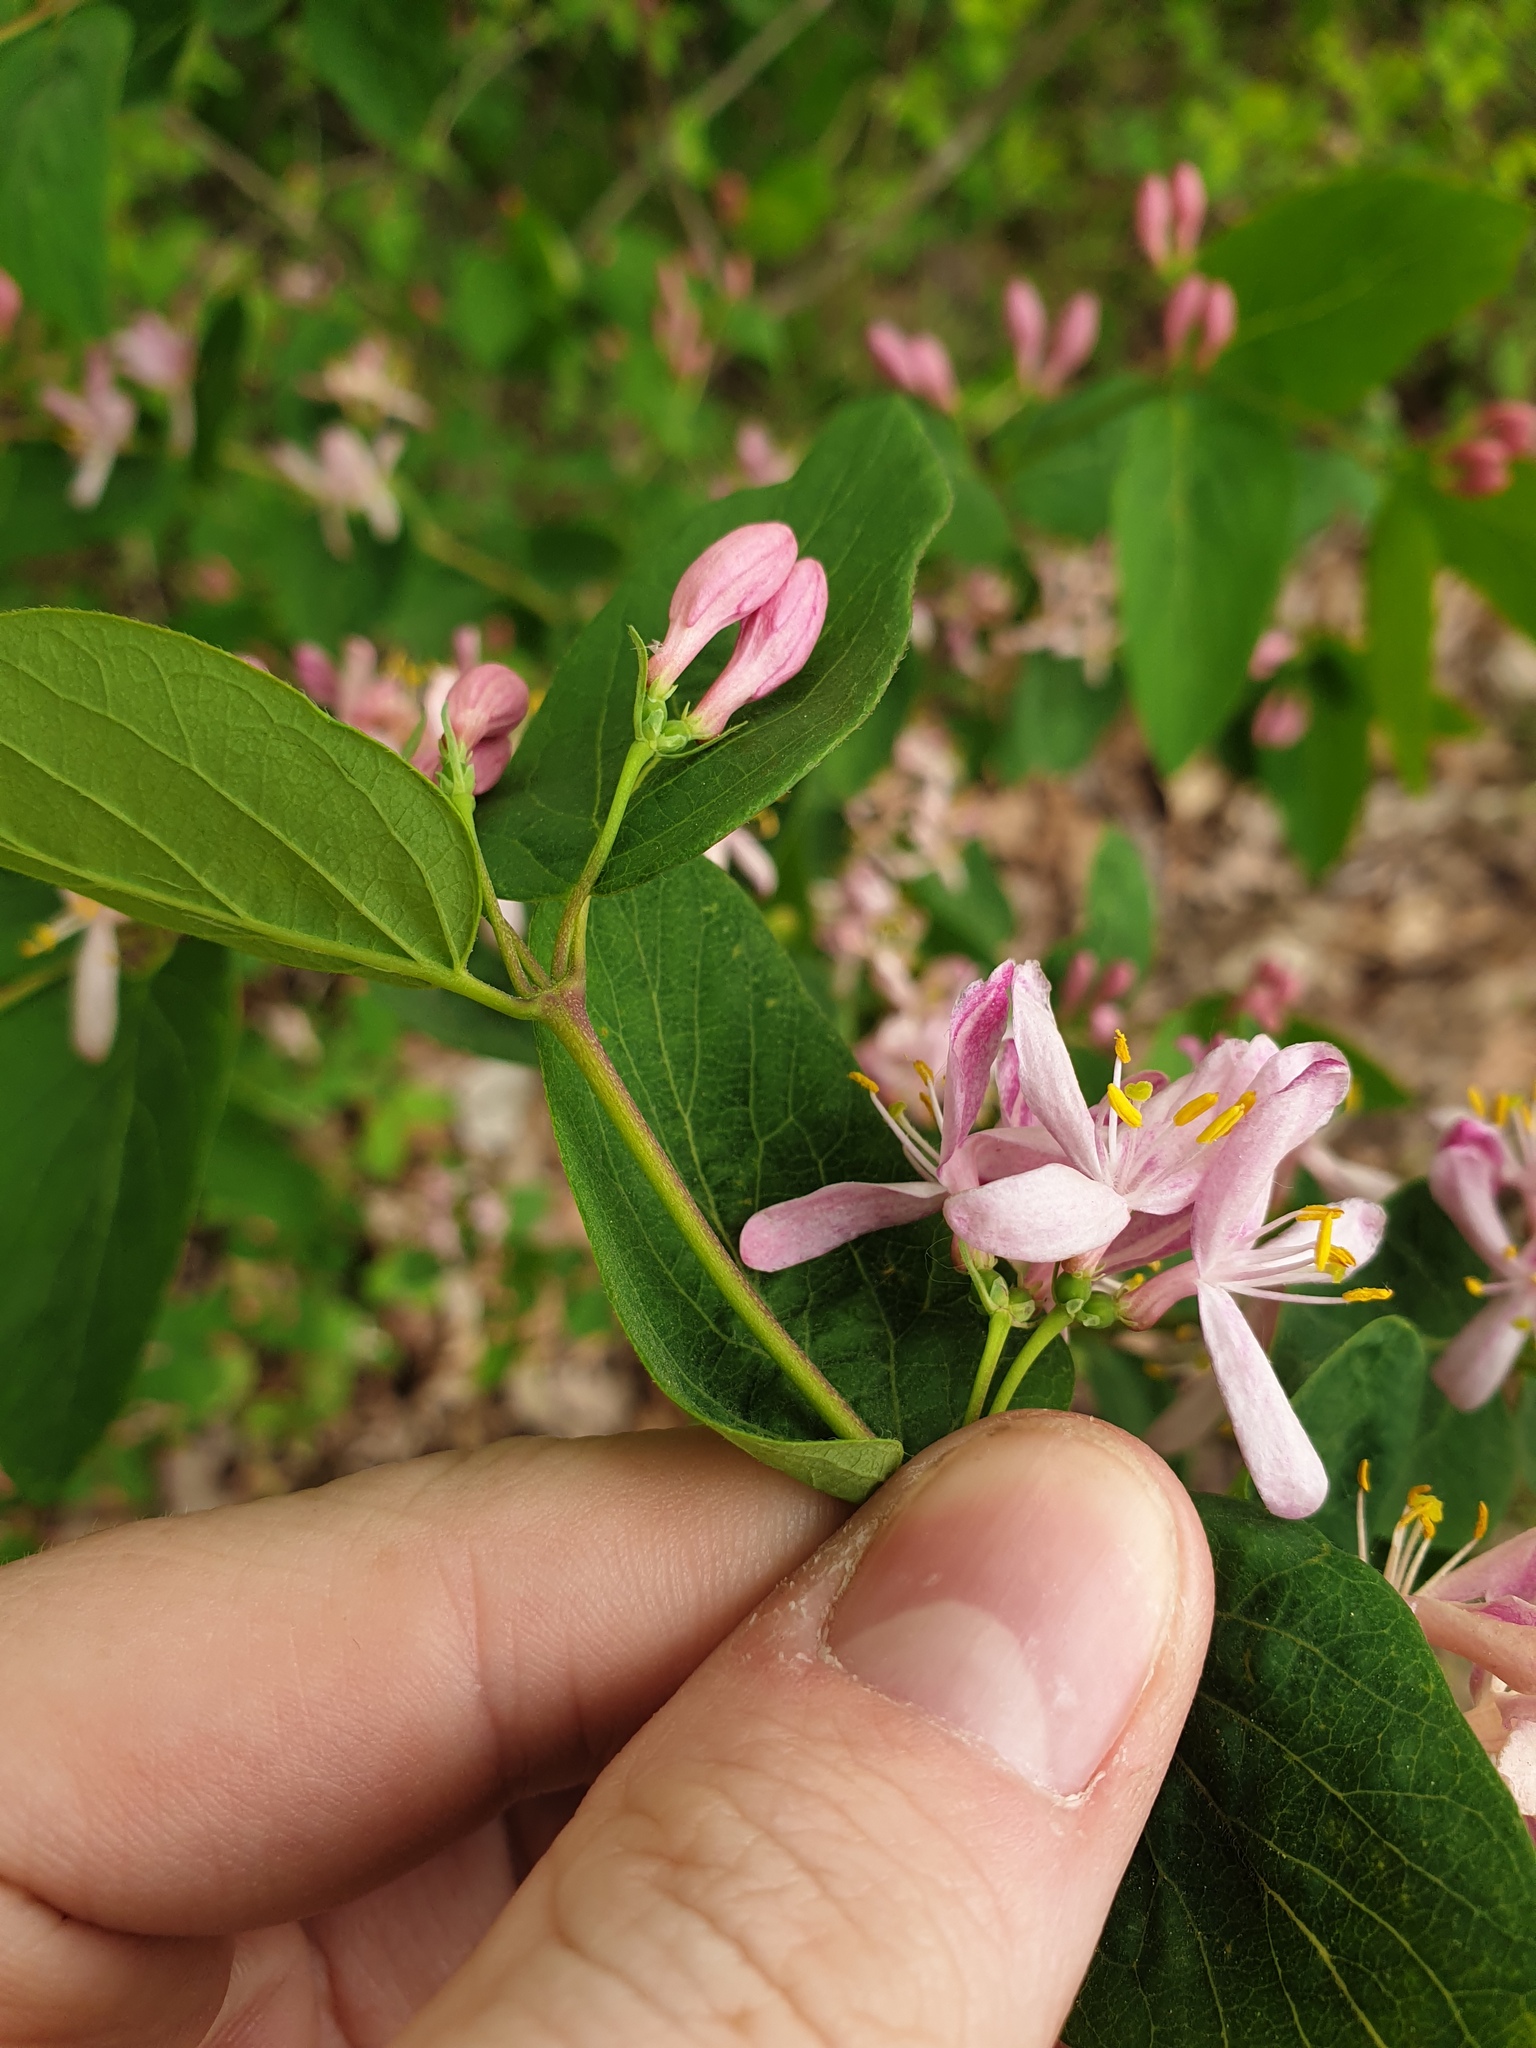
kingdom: Plantae
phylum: Tracheophyta
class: Magnoliopsida
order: Dipsacales
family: Caprifoliaceae
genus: Lonicera
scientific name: Lonicera tatarica
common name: Tatarian honeysuckle
